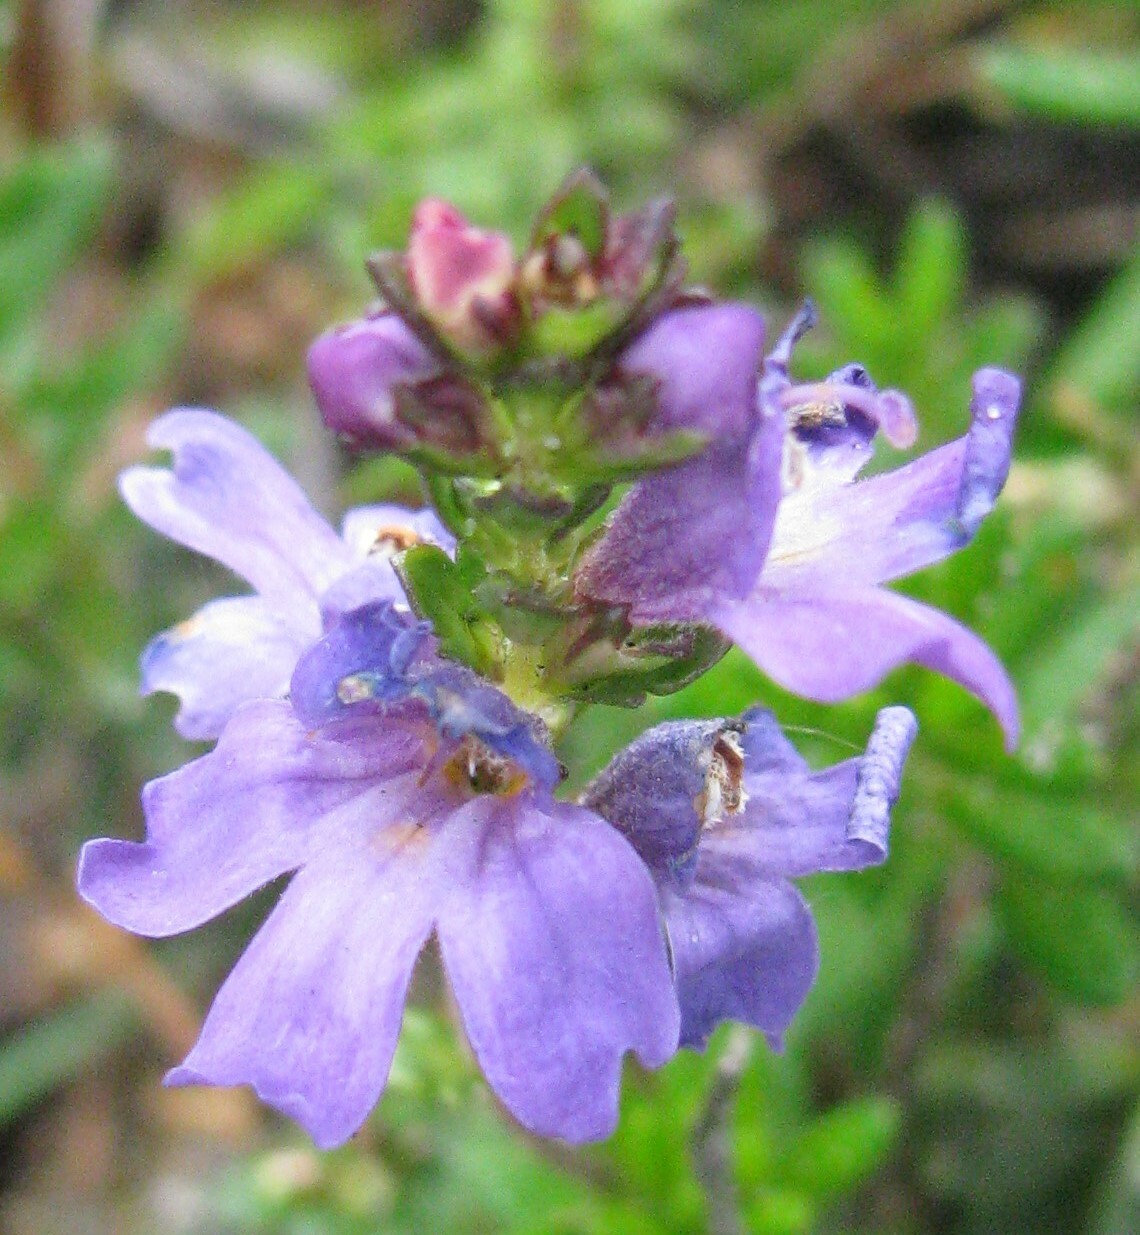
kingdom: Plantae
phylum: Tracheophyta
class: Magnoliopsida
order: Lamiales
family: Orobanchaceae
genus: Euphrasia
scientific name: Euphrasia collina
